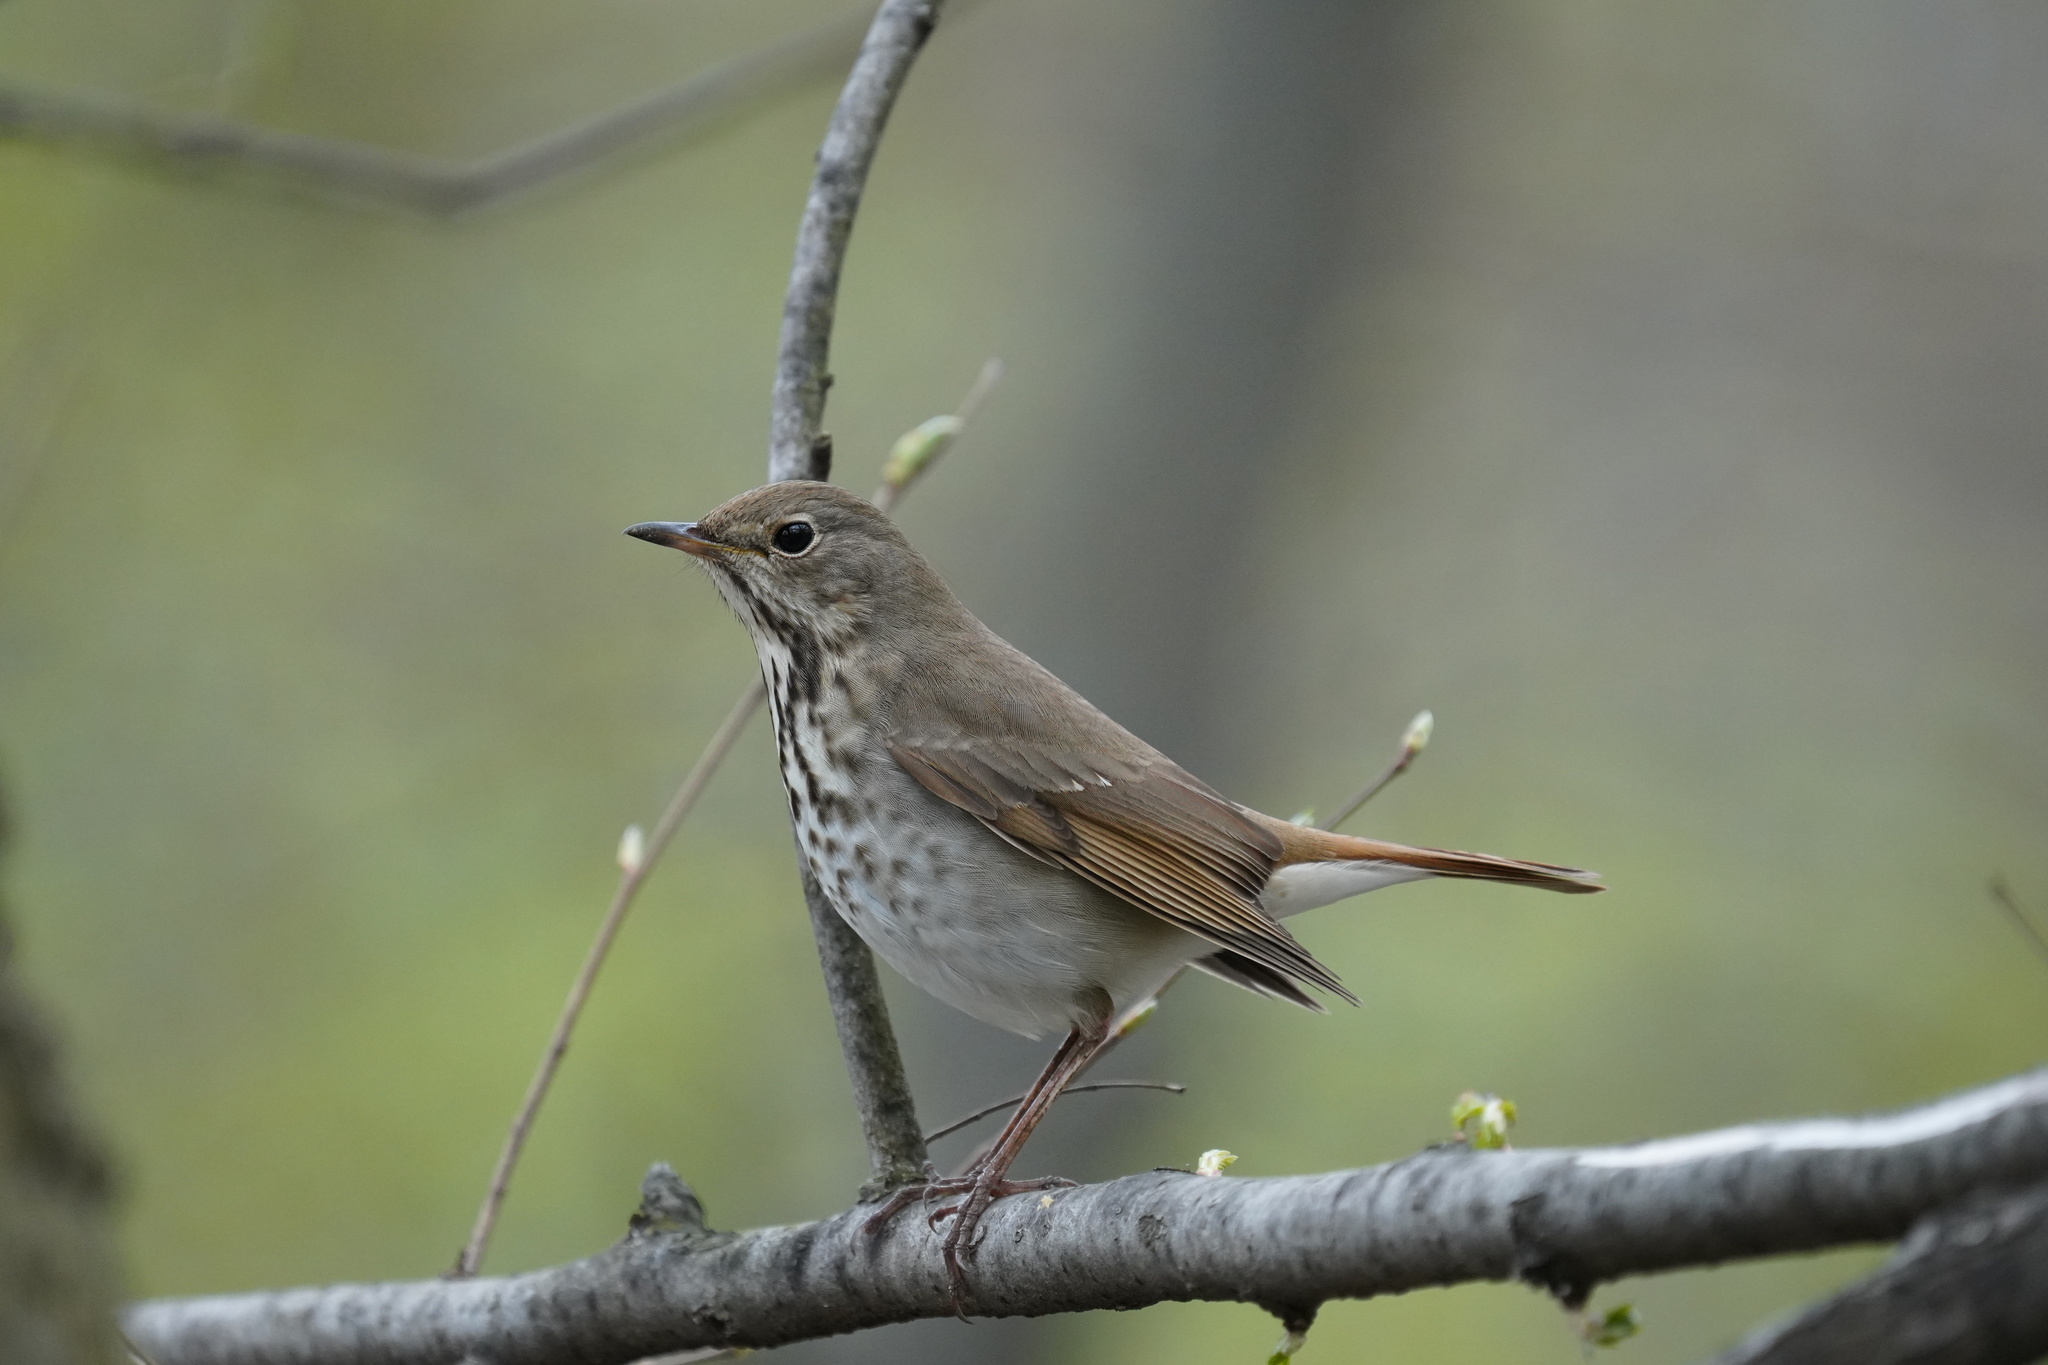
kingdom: Animalia
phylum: Chordata
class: Aves
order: Passeriformes
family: Turdidae
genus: Catharus
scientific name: Catharus guttatus
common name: Hermit thrush
